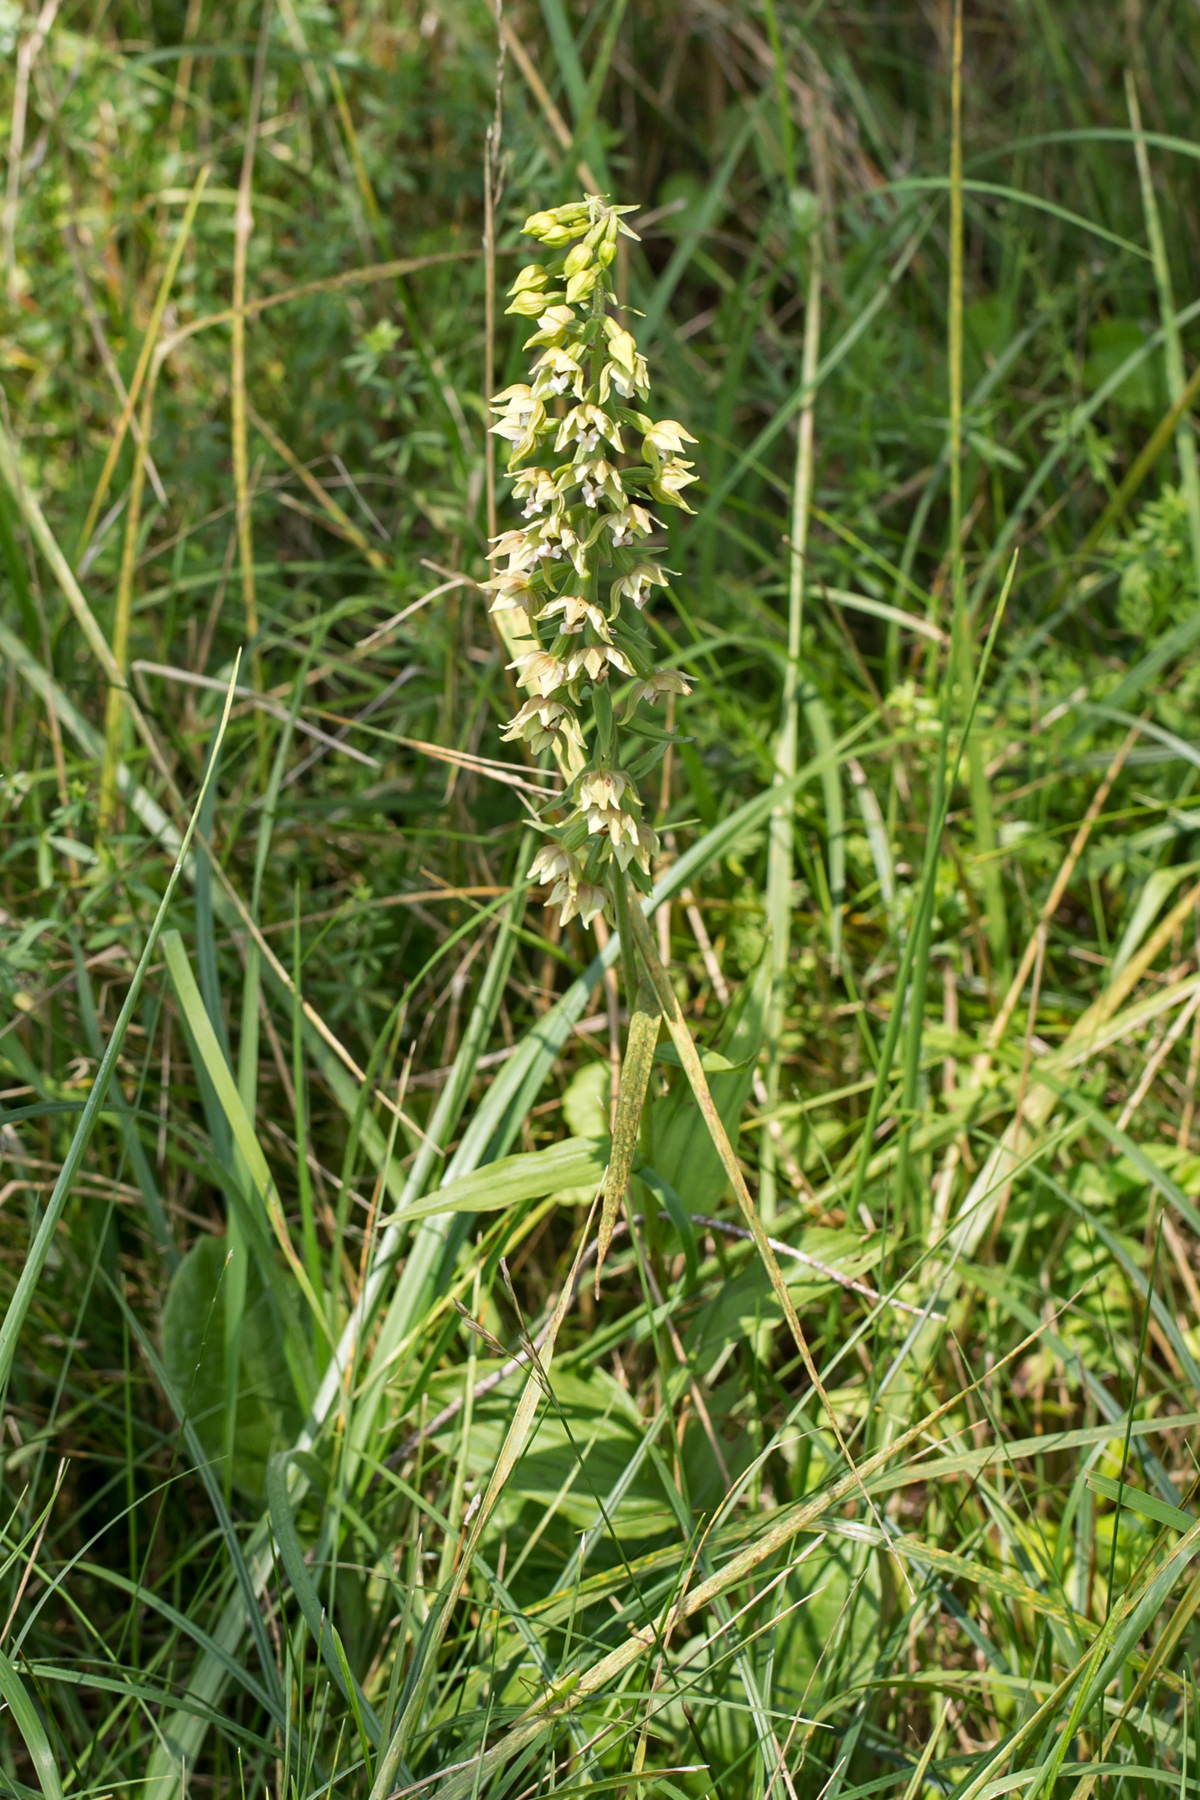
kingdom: Plantae
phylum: Tracheophyta
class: Liliopsida
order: Asparagales
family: Orchidaceae
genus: Epipactis
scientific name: Epipactis helleborine
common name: Broad-leaved helleborine
